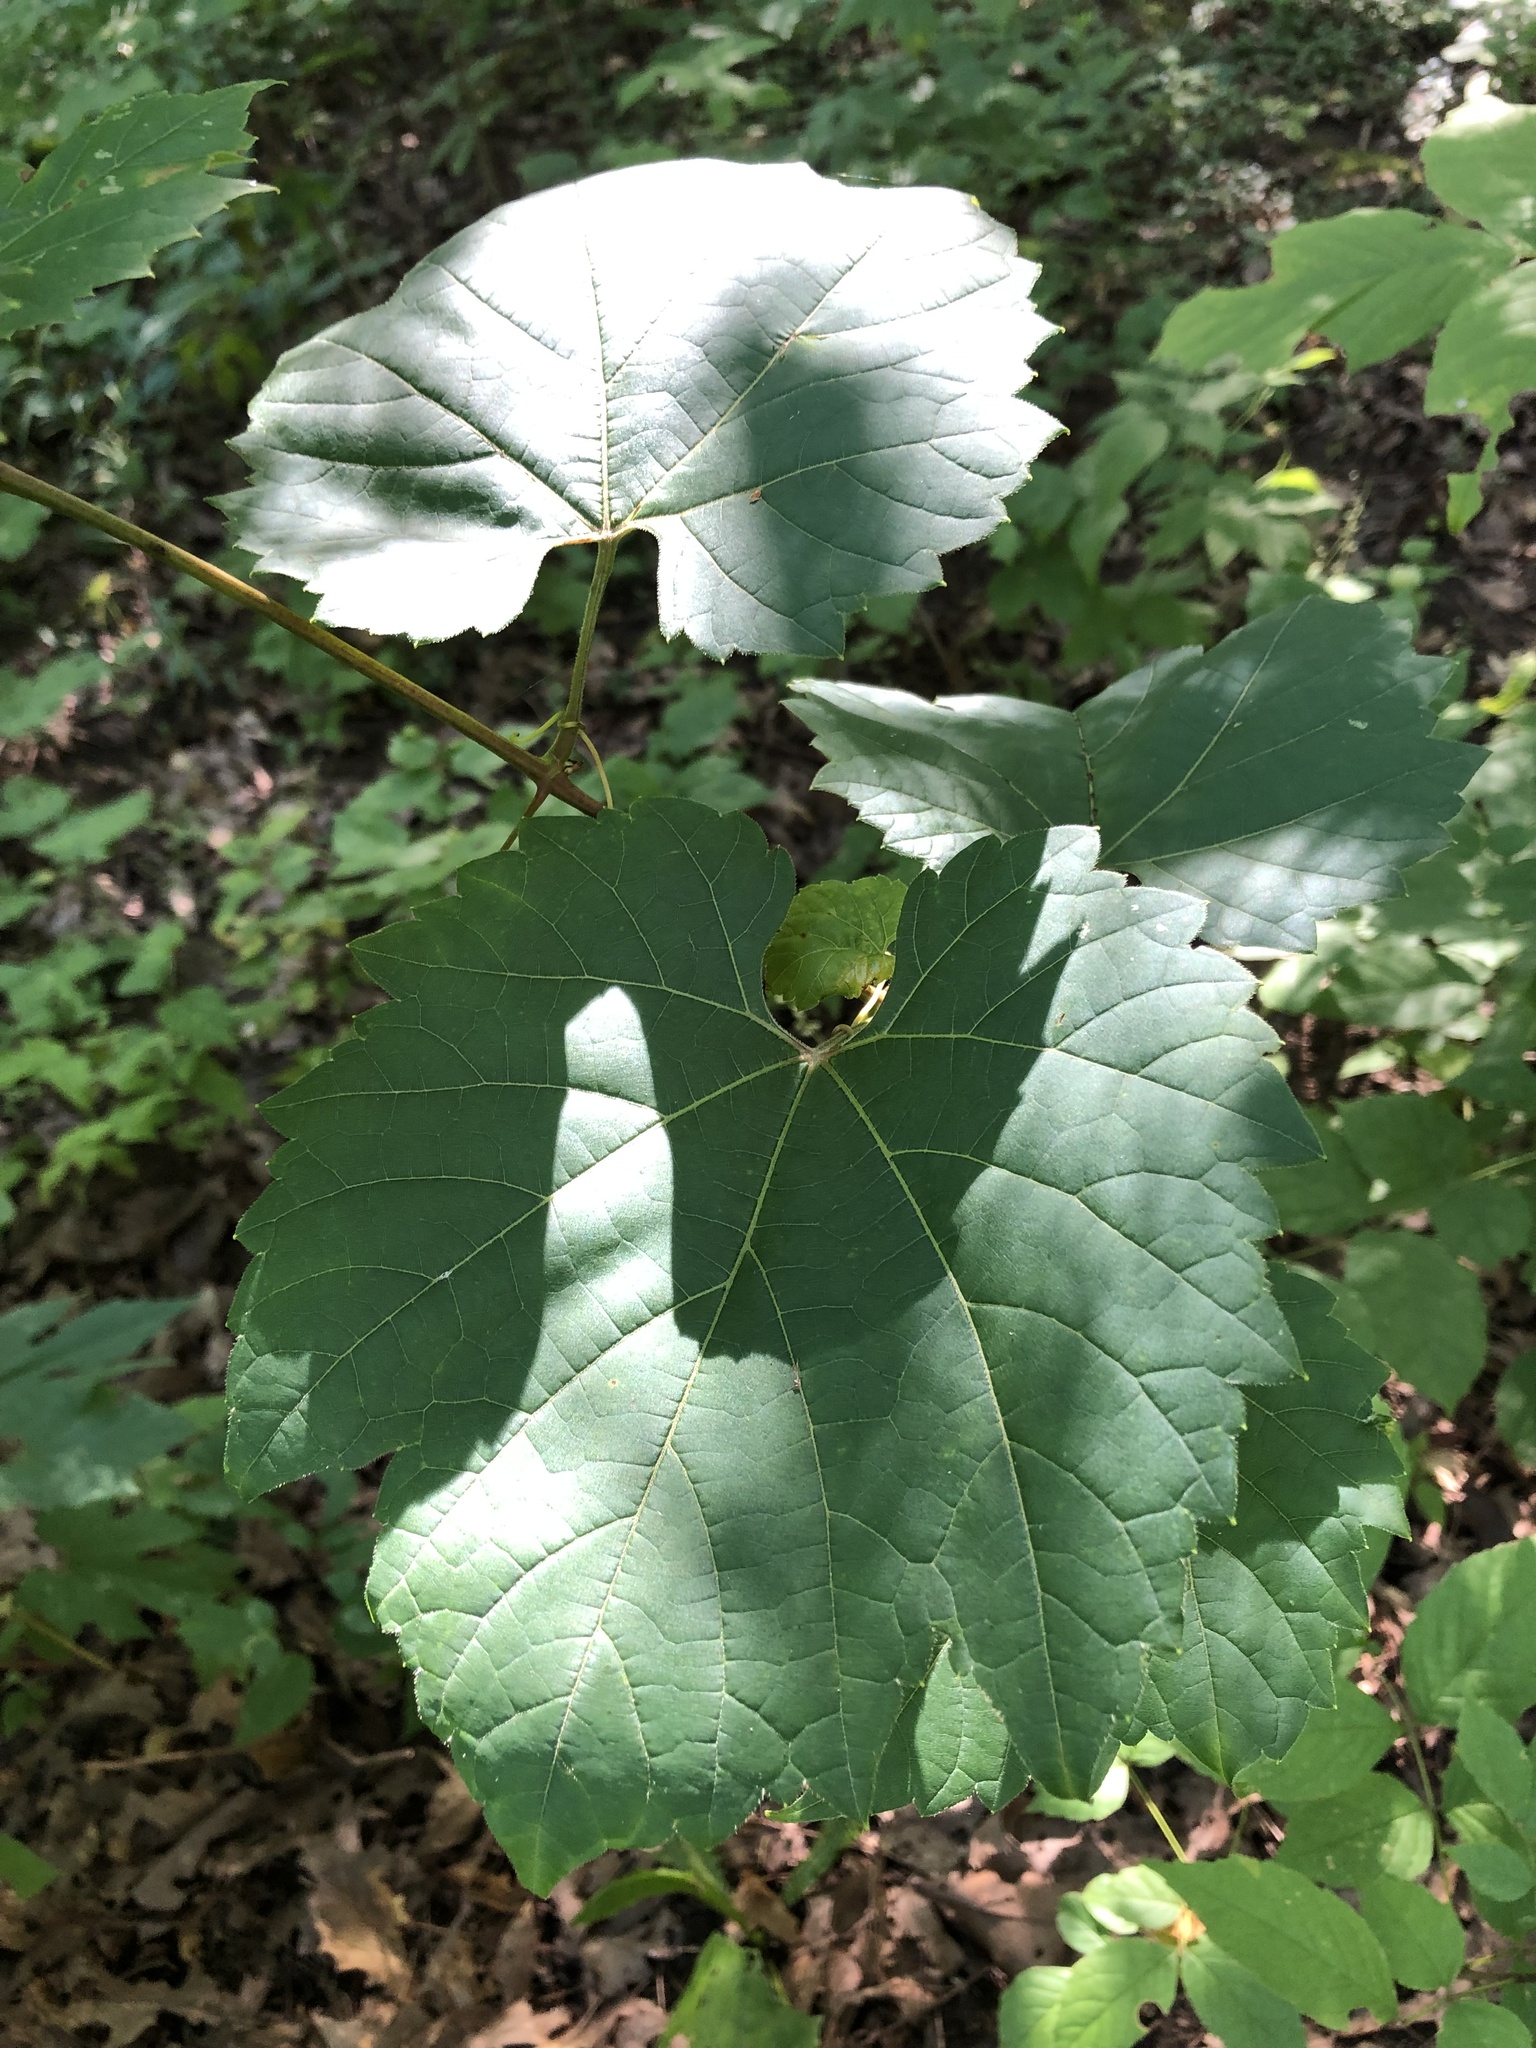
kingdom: Plantae
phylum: Tracheophyta
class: Magnoliopsida
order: Vitales
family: Vitaceae
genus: Vitis
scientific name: Vitis riparia
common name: Frost grape
